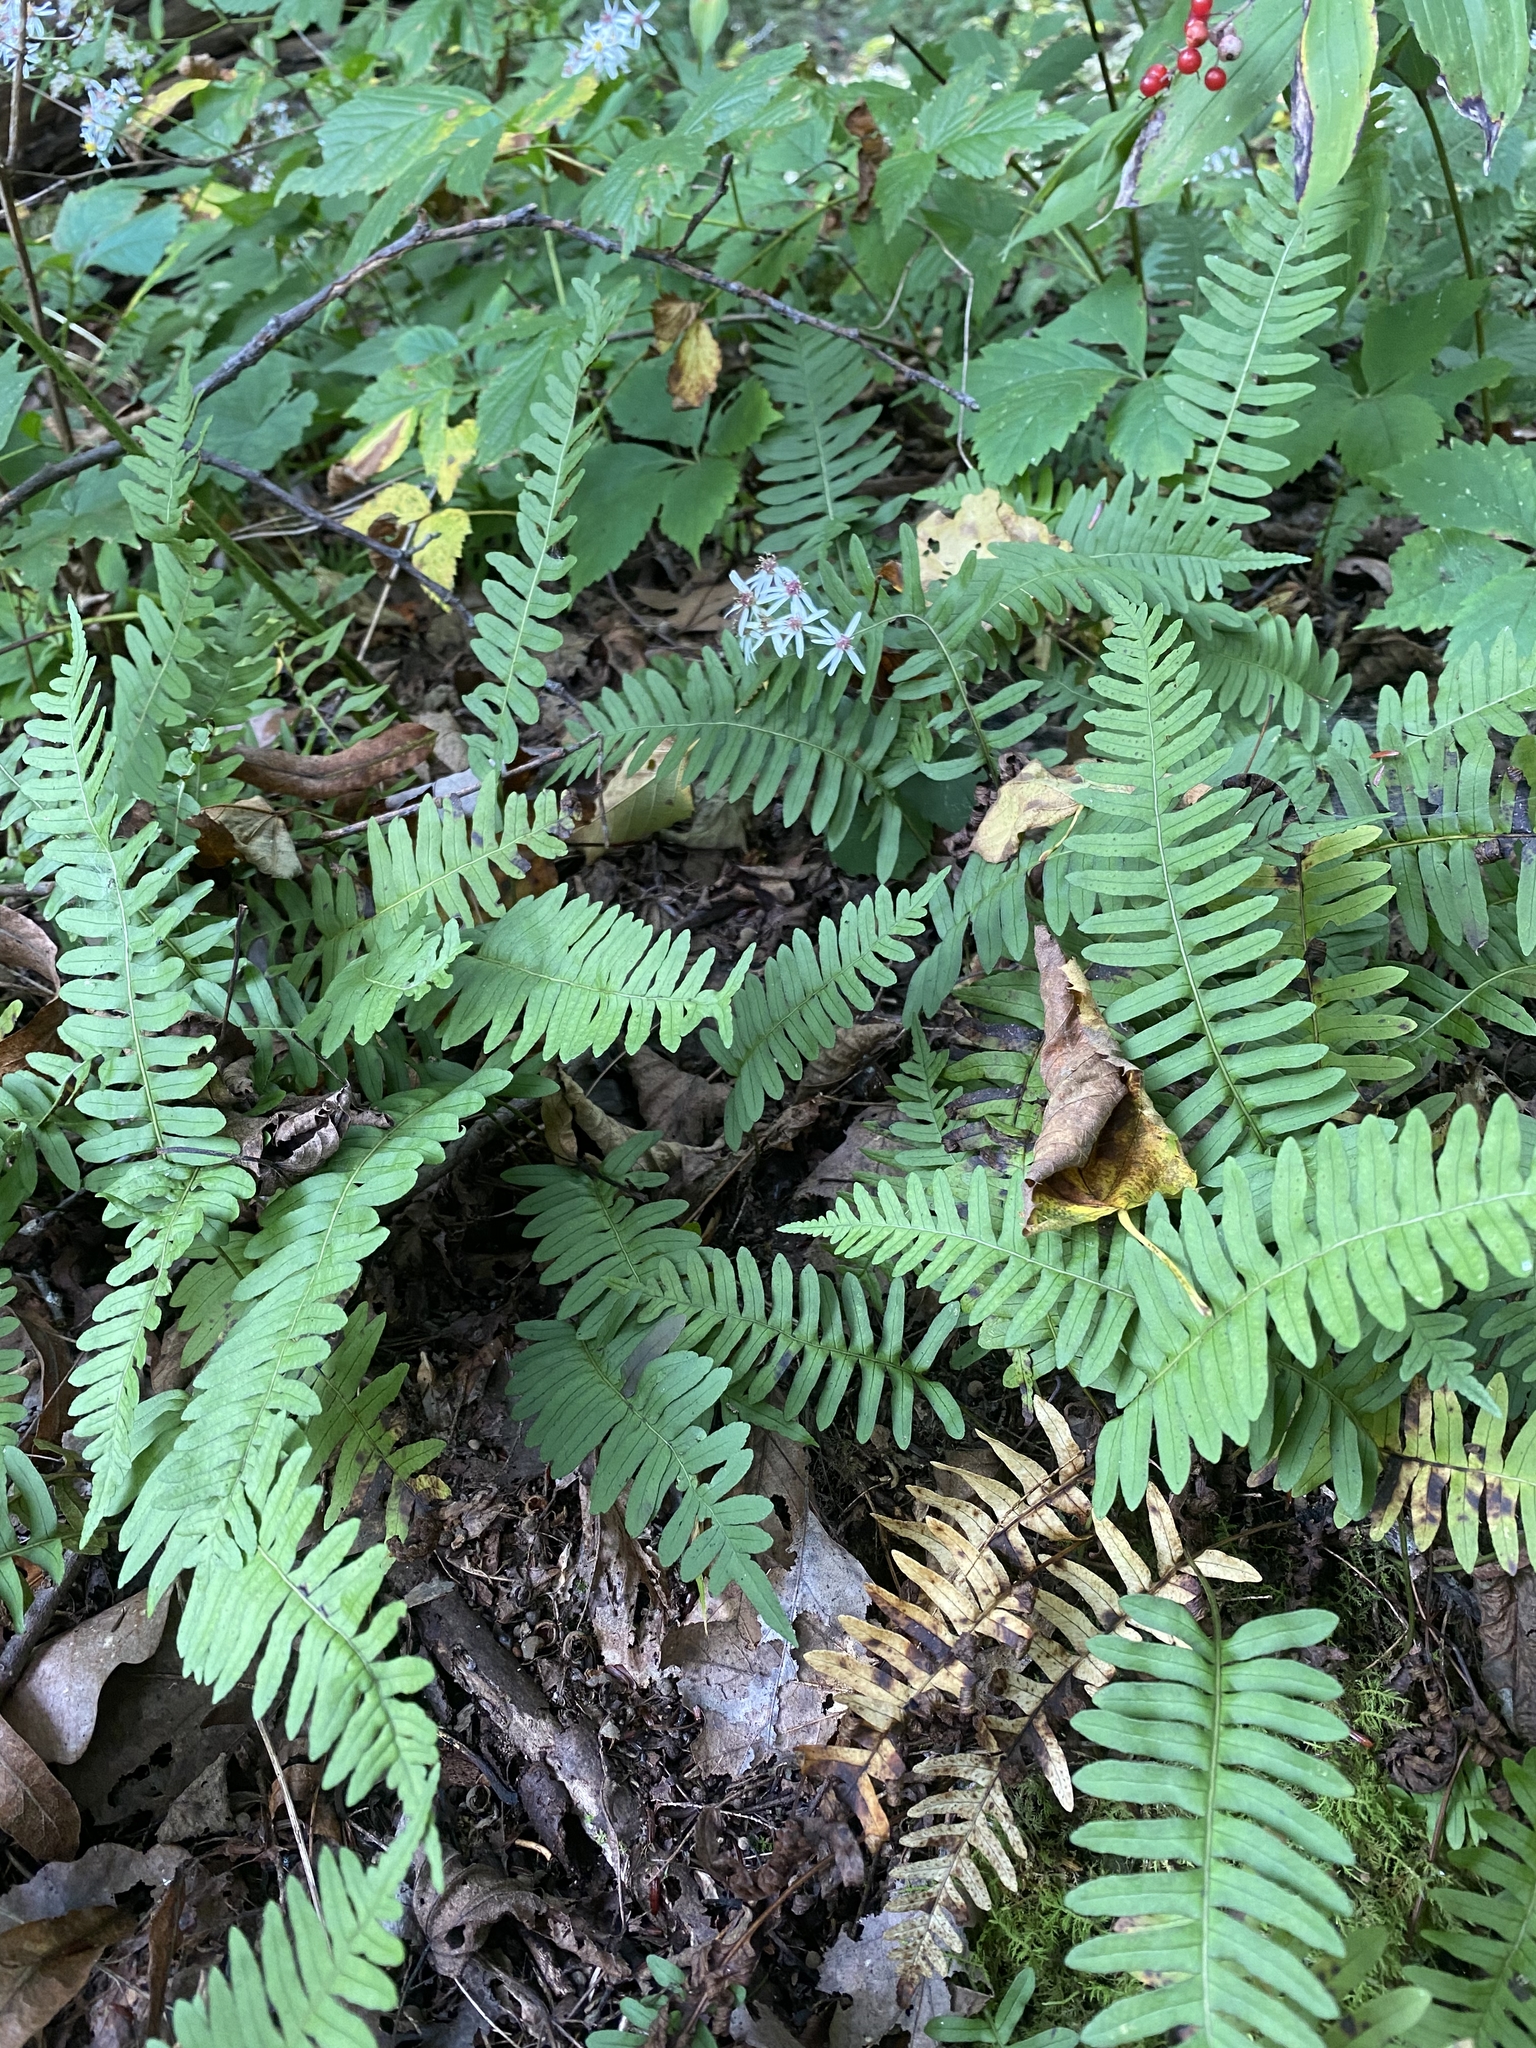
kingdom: Plantae
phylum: Tracheophyta
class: Polypodiopsida
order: Polypodiales
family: Polypodiaceae
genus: Polypodium
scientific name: Polypodium virginianum
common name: American wall fern
